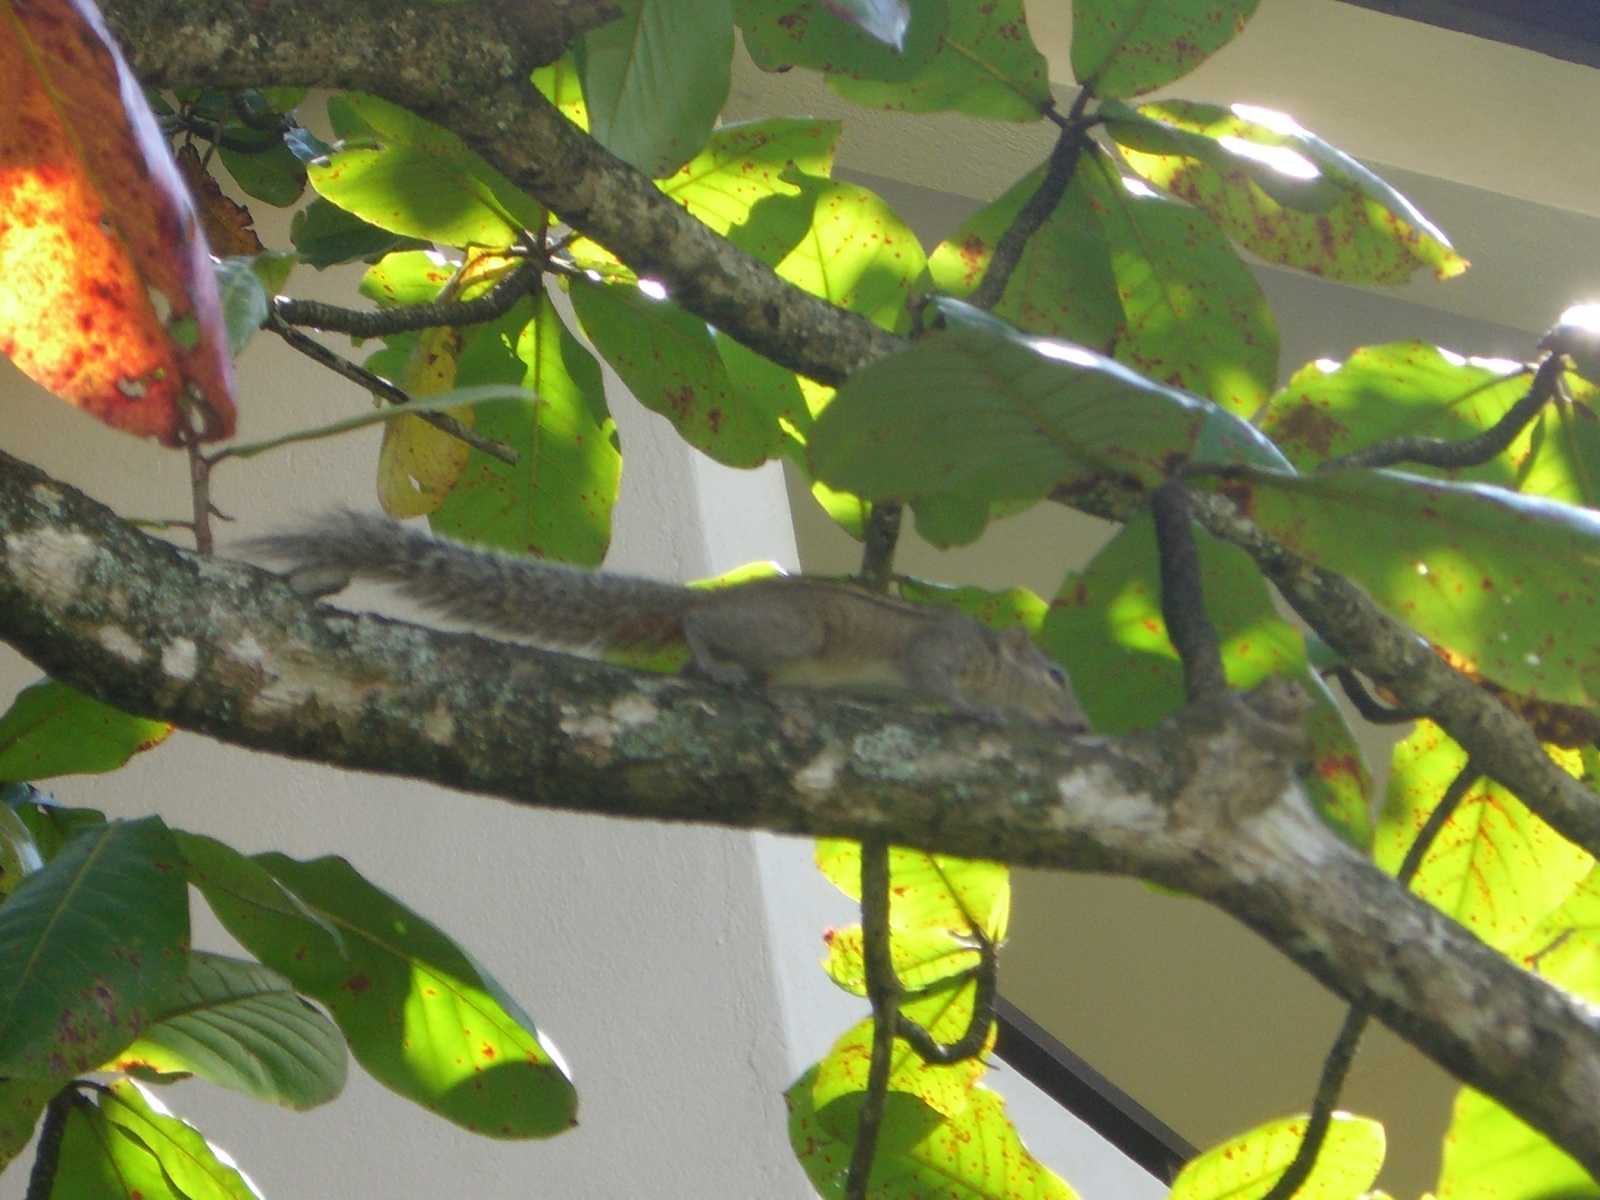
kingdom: Animalia
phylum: Chordata
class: Mammalia
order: Rodentia
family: Sciuridae
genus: Funambulus
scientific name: Funambulus palmarum
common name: Indian palm squirrel
